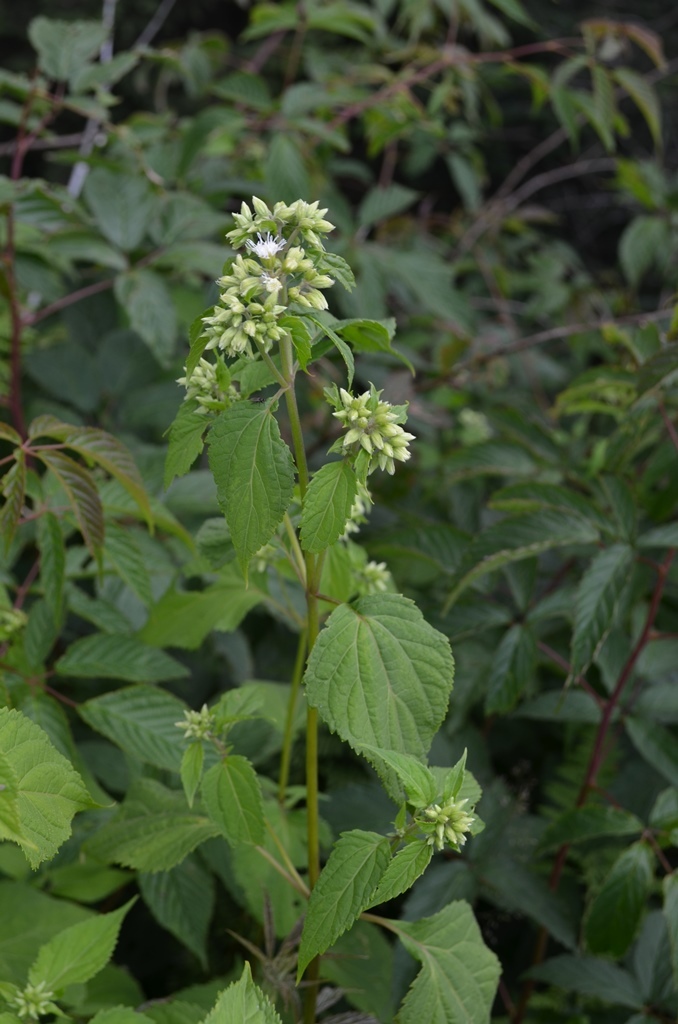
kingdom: Plantae
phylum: Tracheophyta
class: Magnoliopsida
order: Asterales
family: Asteraceae
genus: Ageratina
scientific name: Ageratina altissima
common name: White snakeroot
